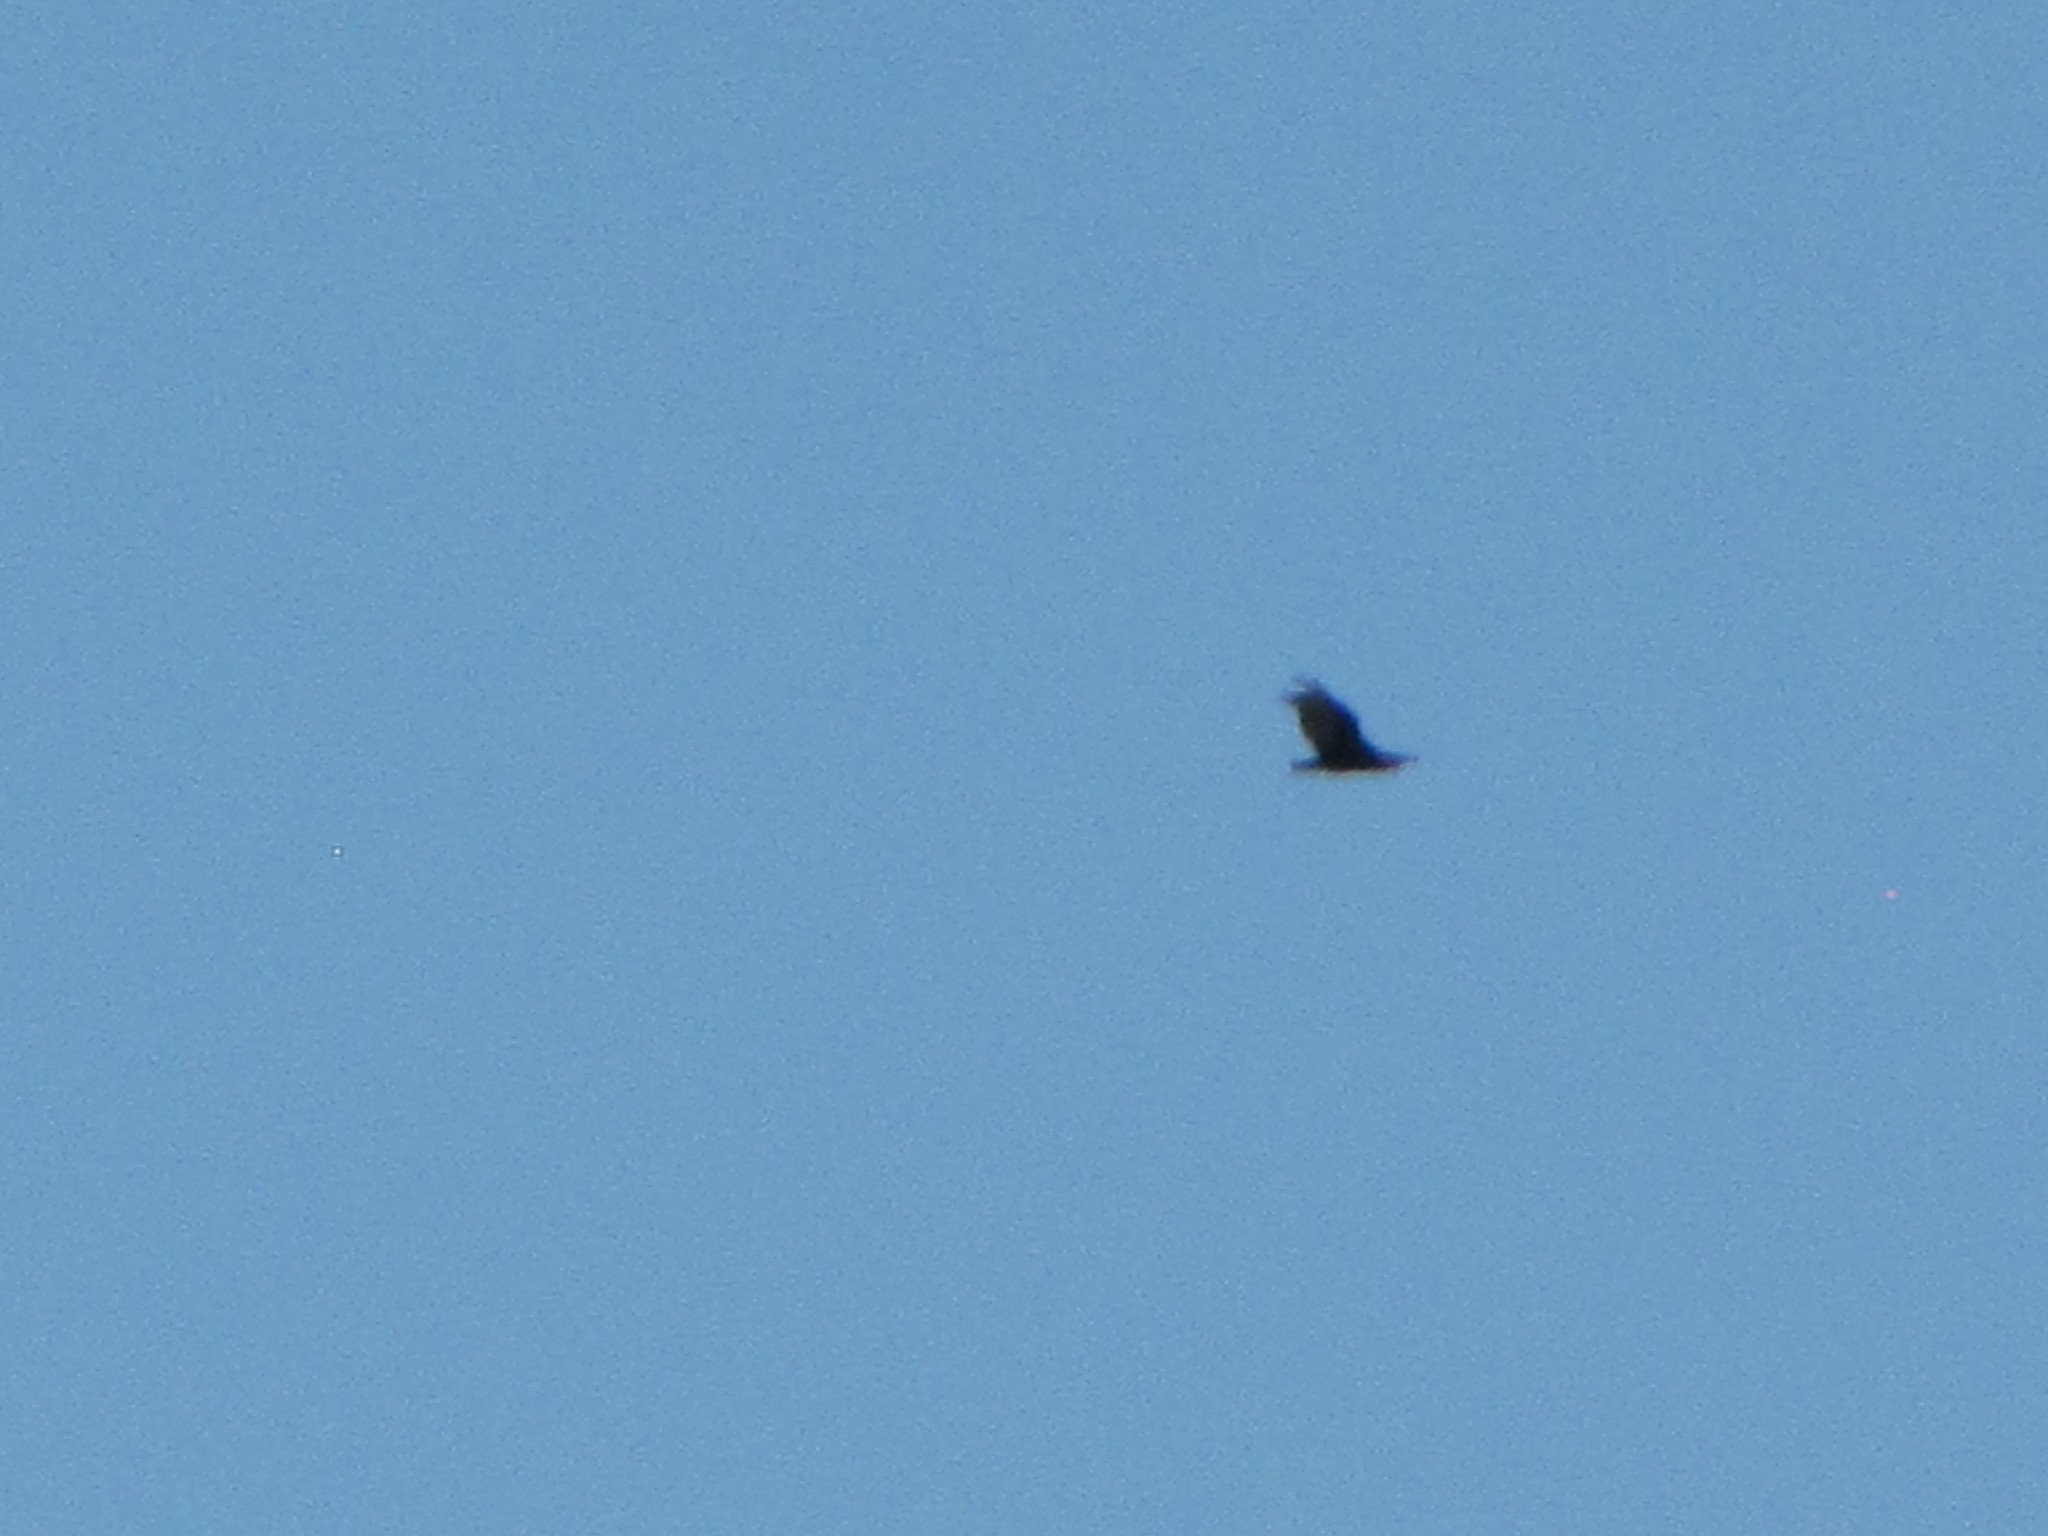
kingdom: Animalia
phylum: Chordata
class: Aves
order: Accipitriformes
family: Cathartidae
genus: Cathartes
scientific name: Cathartes aura
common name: Turkey vulture
